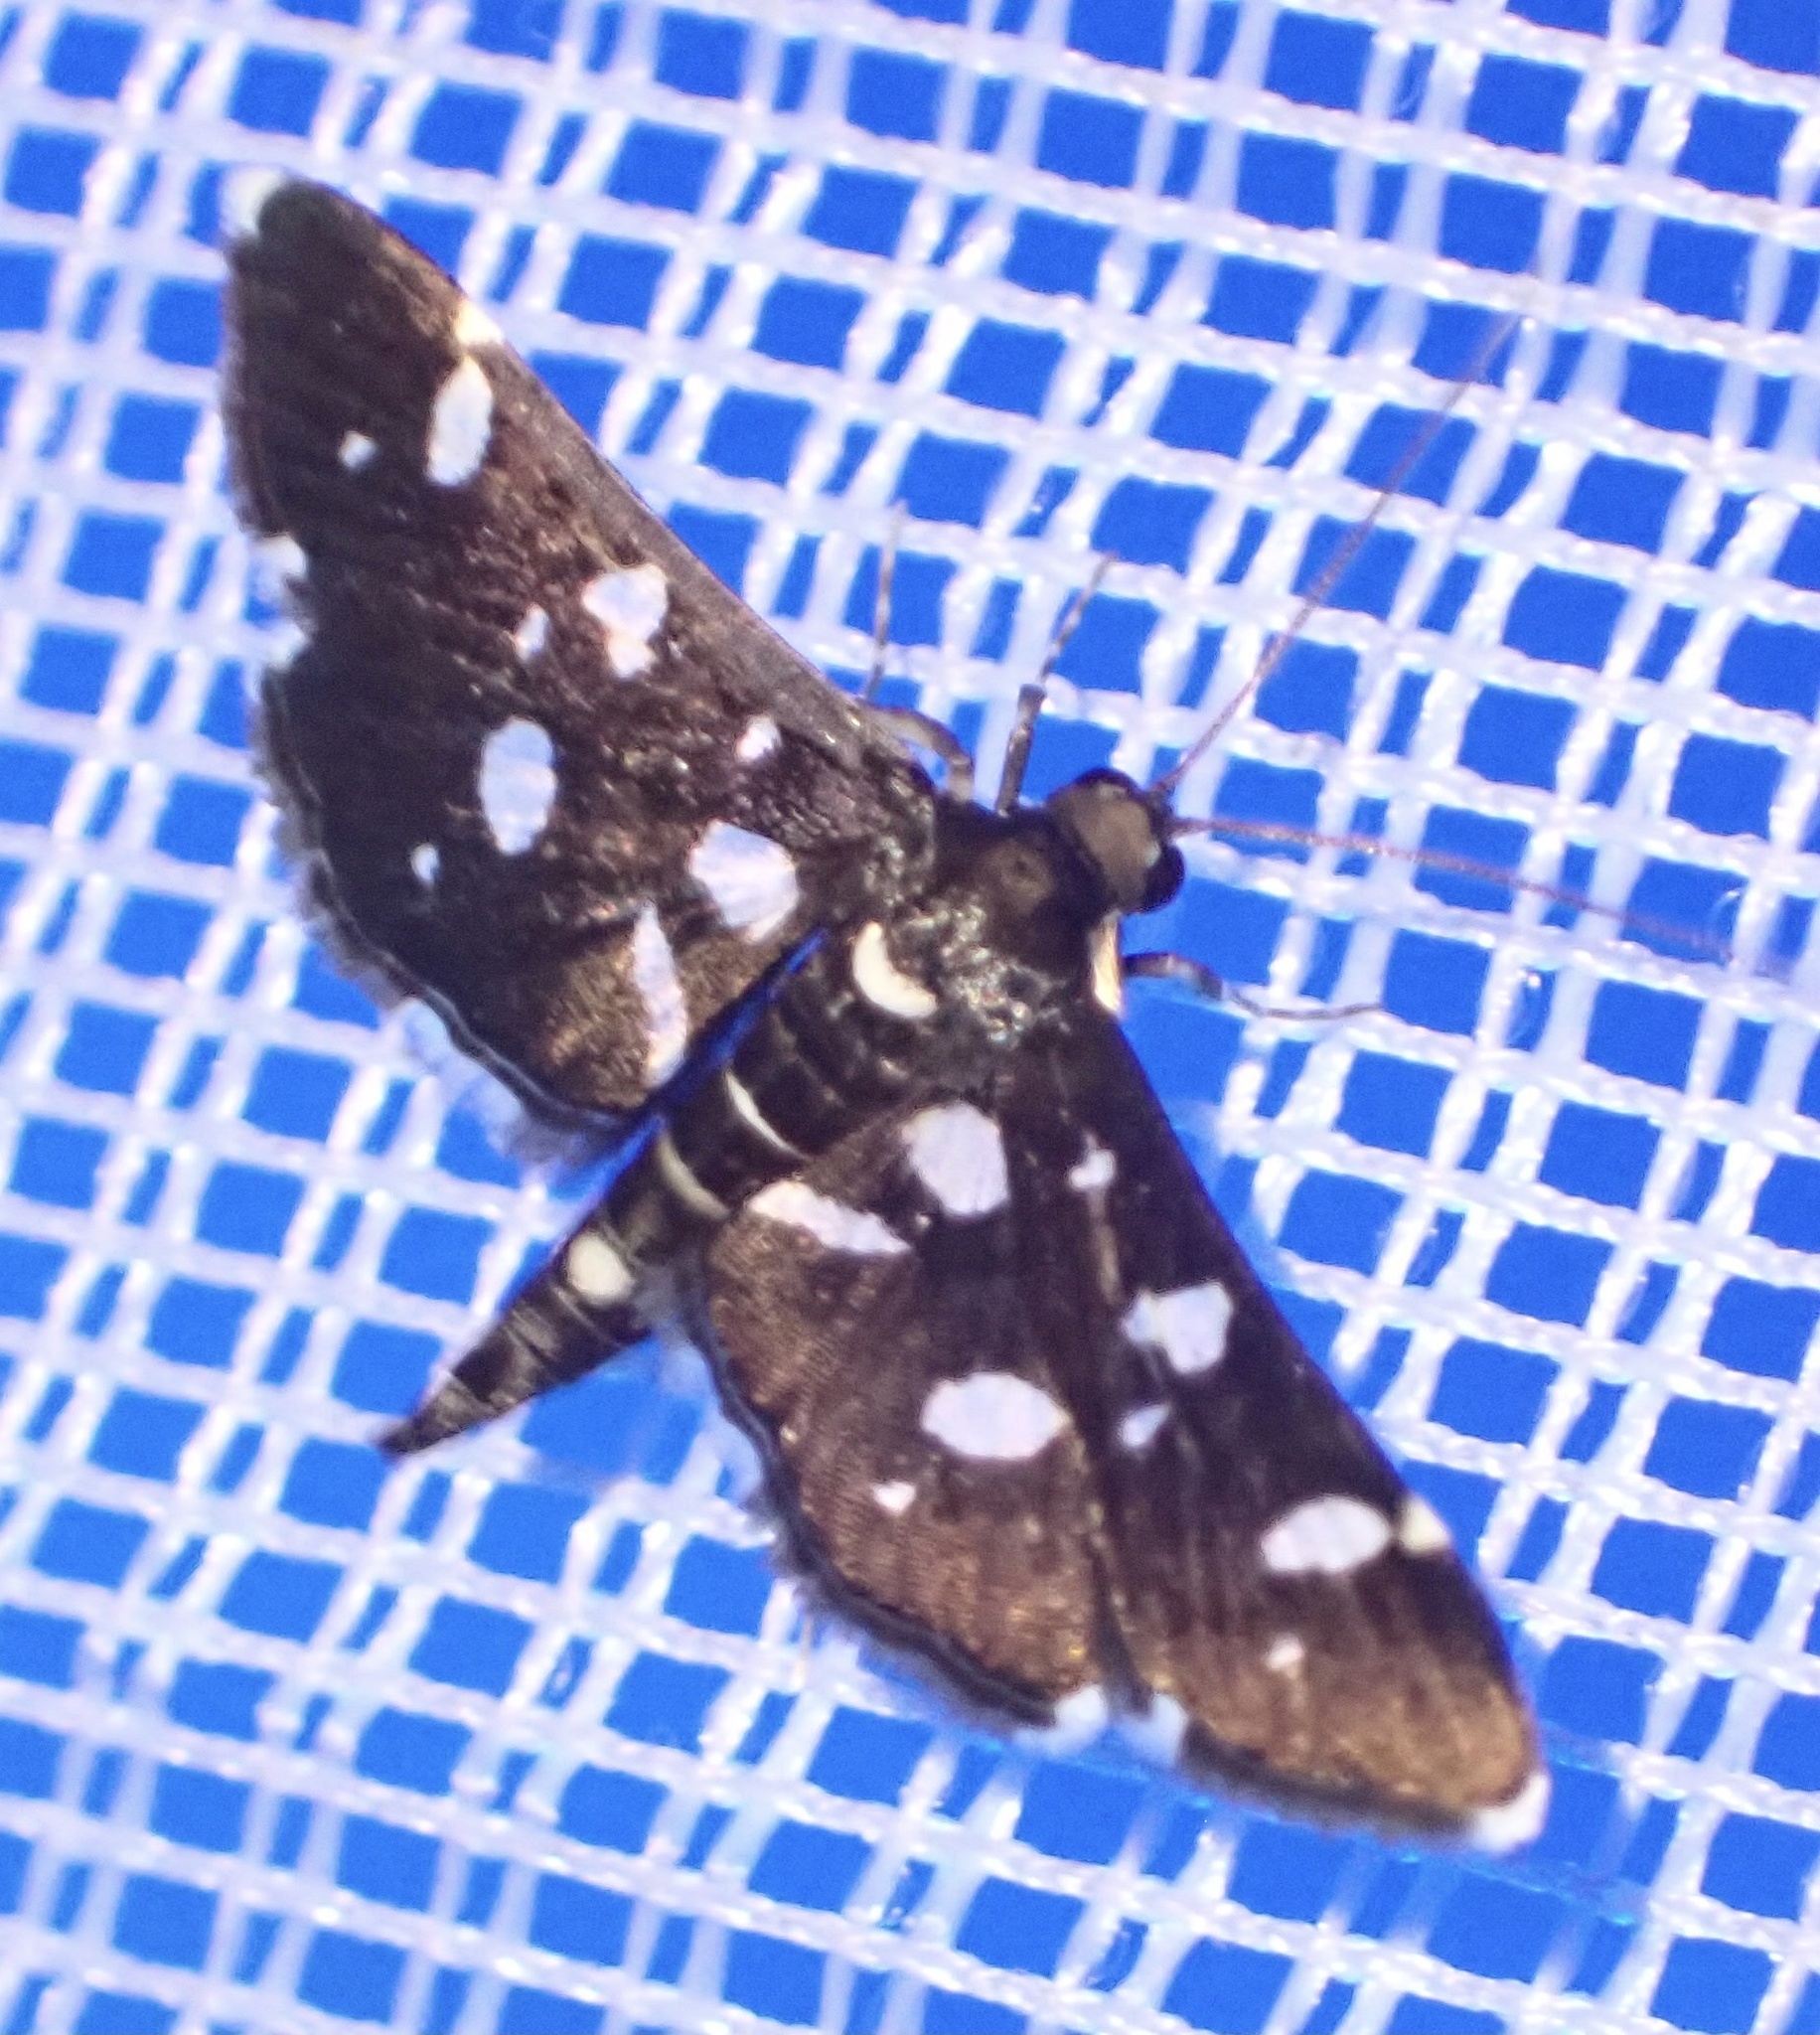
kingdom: Animalia
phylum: Arthropoda
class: Insecta
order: Lepidoptera
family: Crambidae
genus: Bocchoris
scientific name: Bocchoris inspersalis
